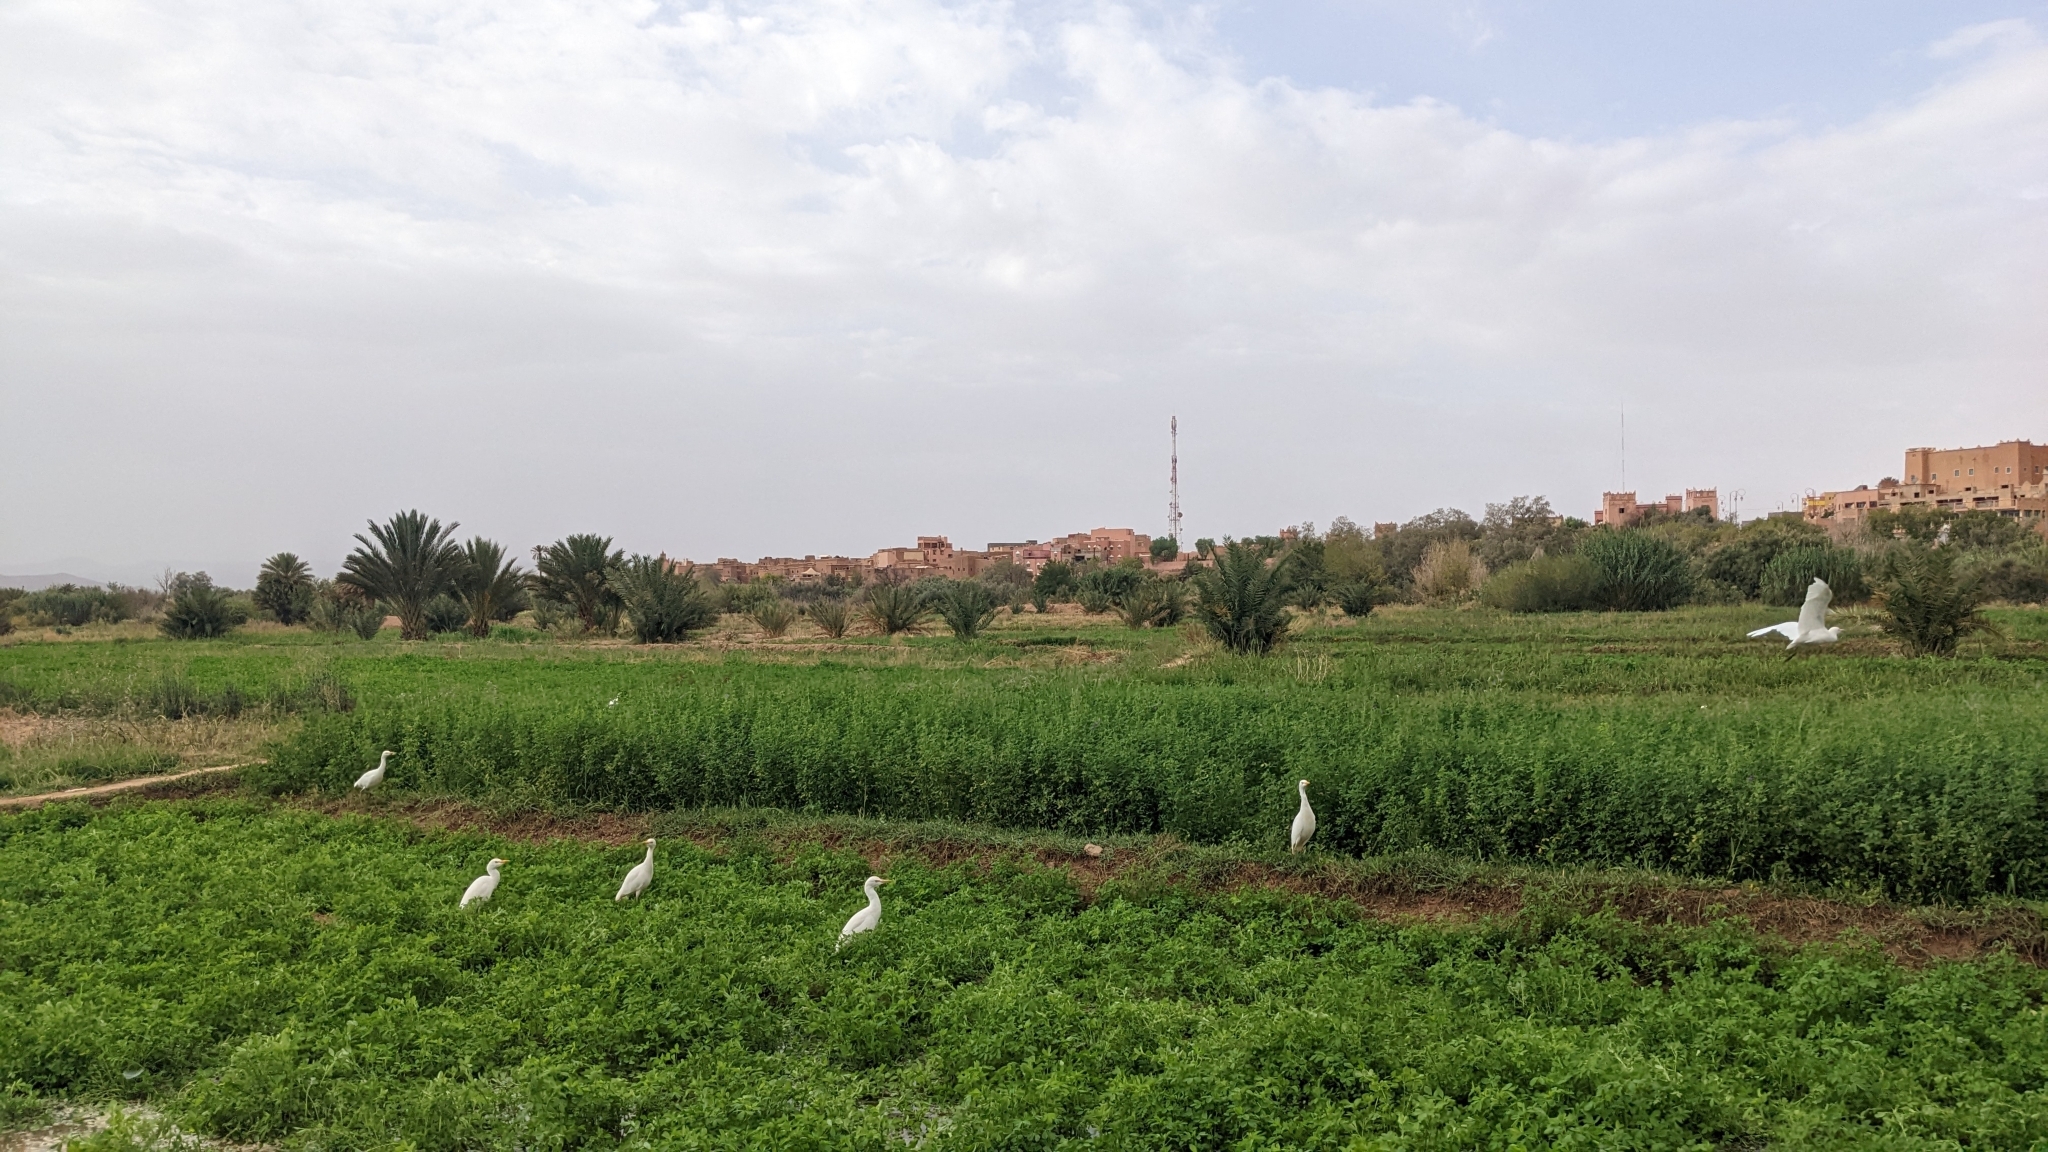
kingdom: Animalia
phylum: Chordata
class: Aves
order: Pelecaniformes
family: Ardeidae
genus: Bubulcus
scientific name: Bubulcus ibis
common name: Cattle egret
